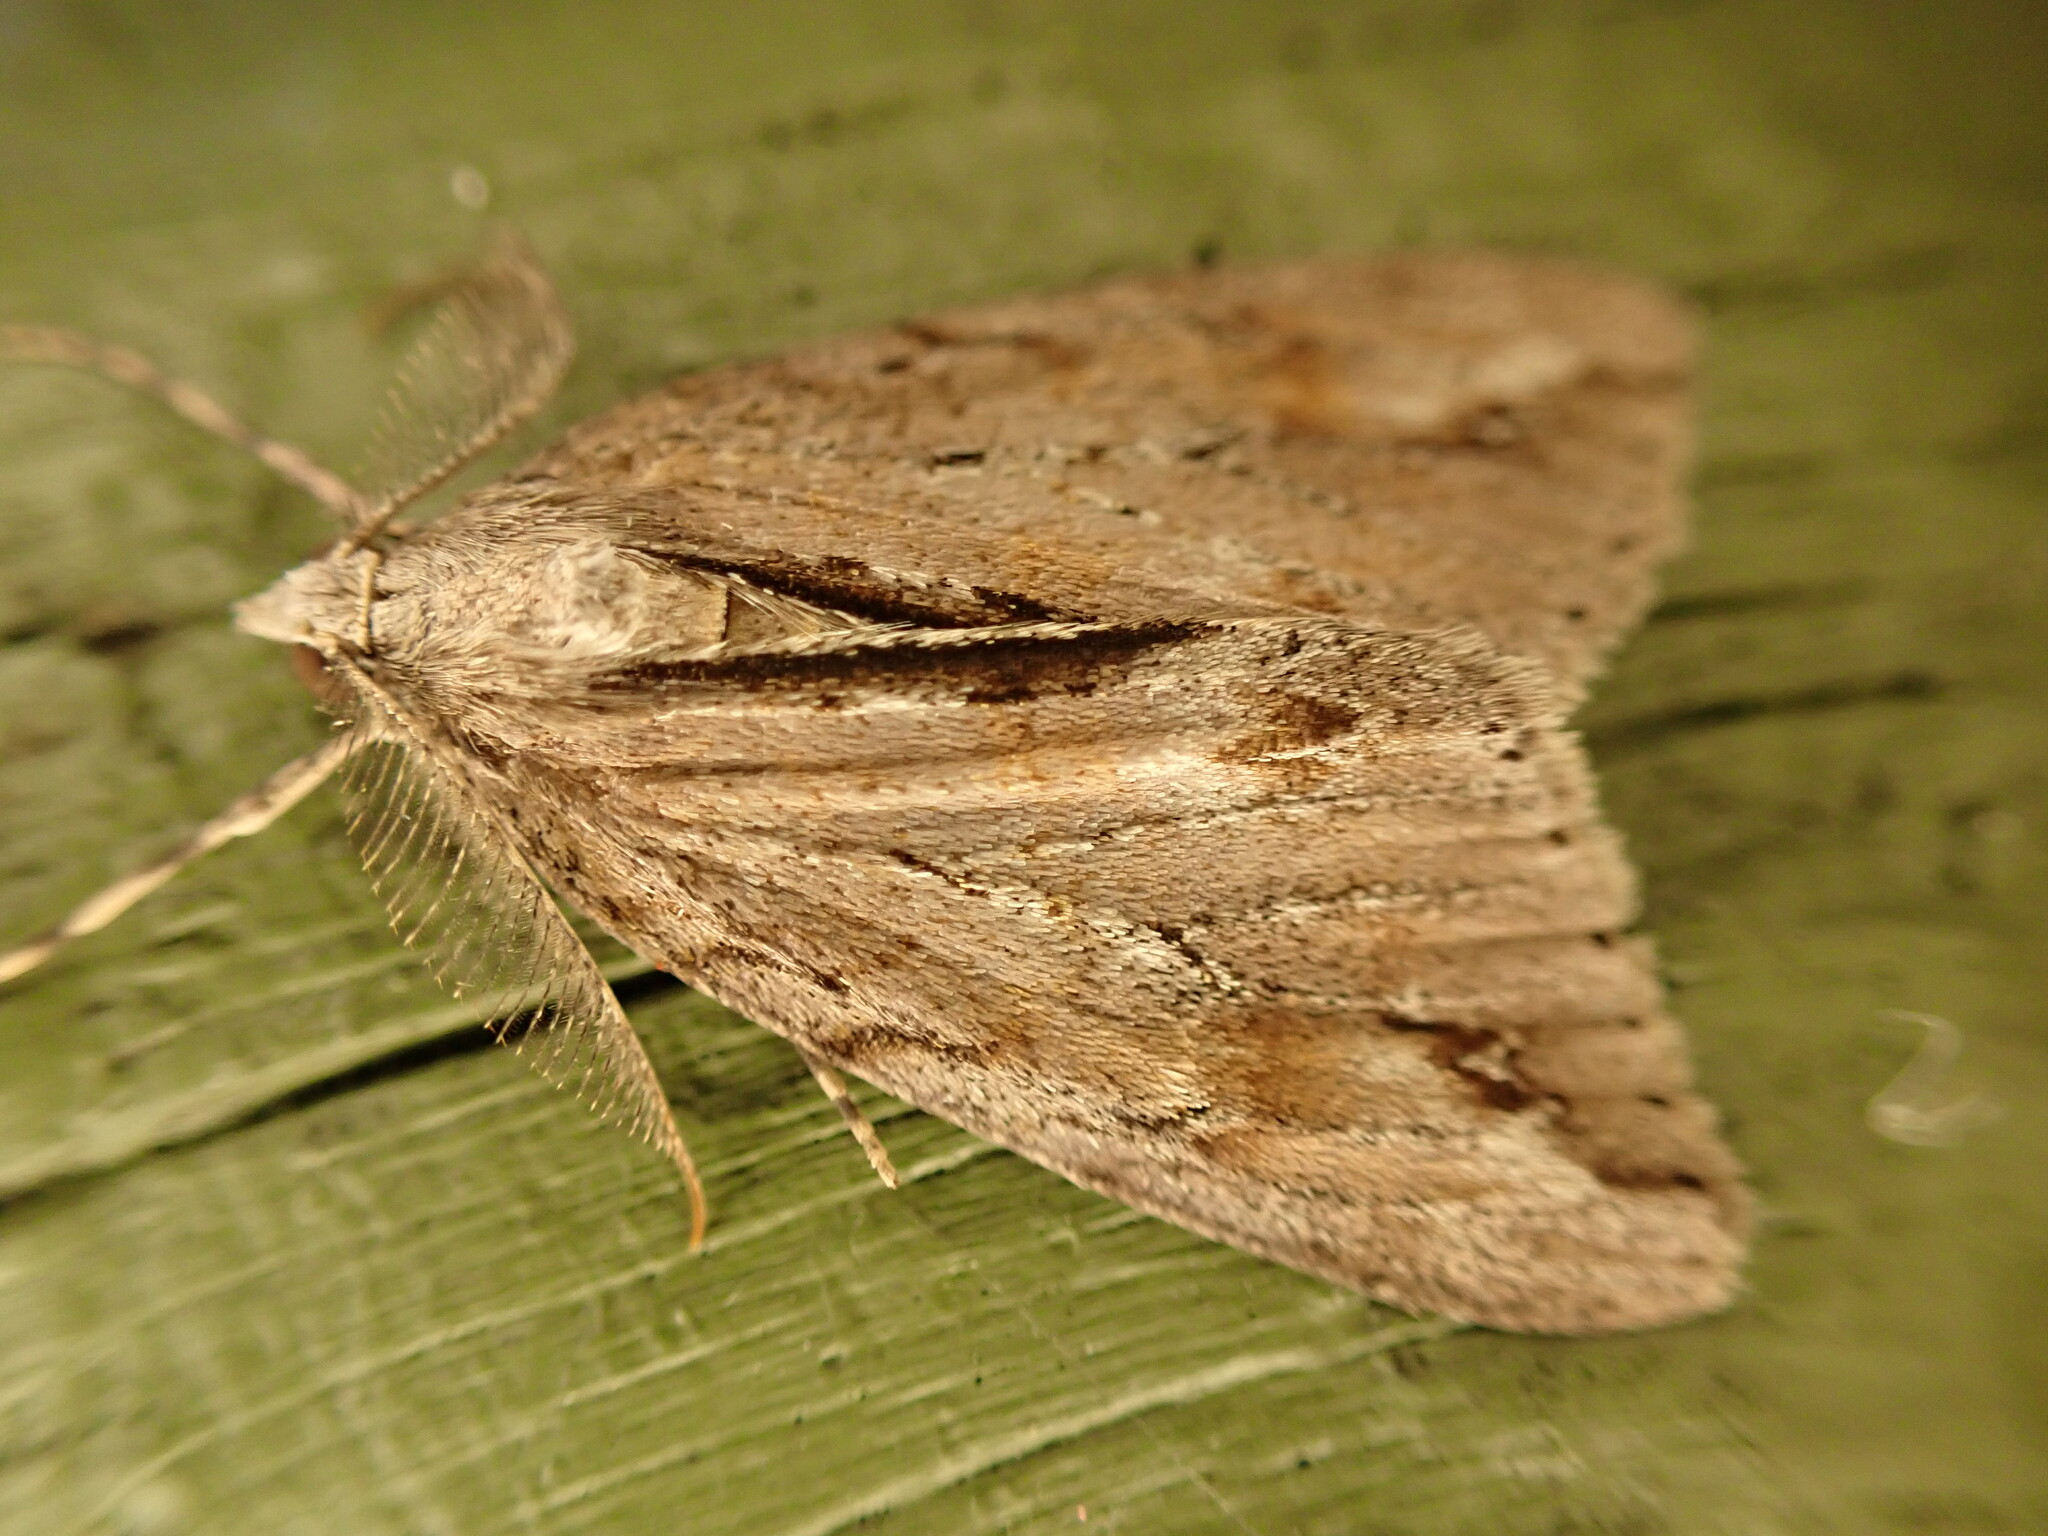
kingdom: Animalia
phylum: Arthropoda
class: Insecta
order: Lepidoptera
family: Geometridae
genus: Pseudocoremia
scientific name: Pseudocoremia lupinata
